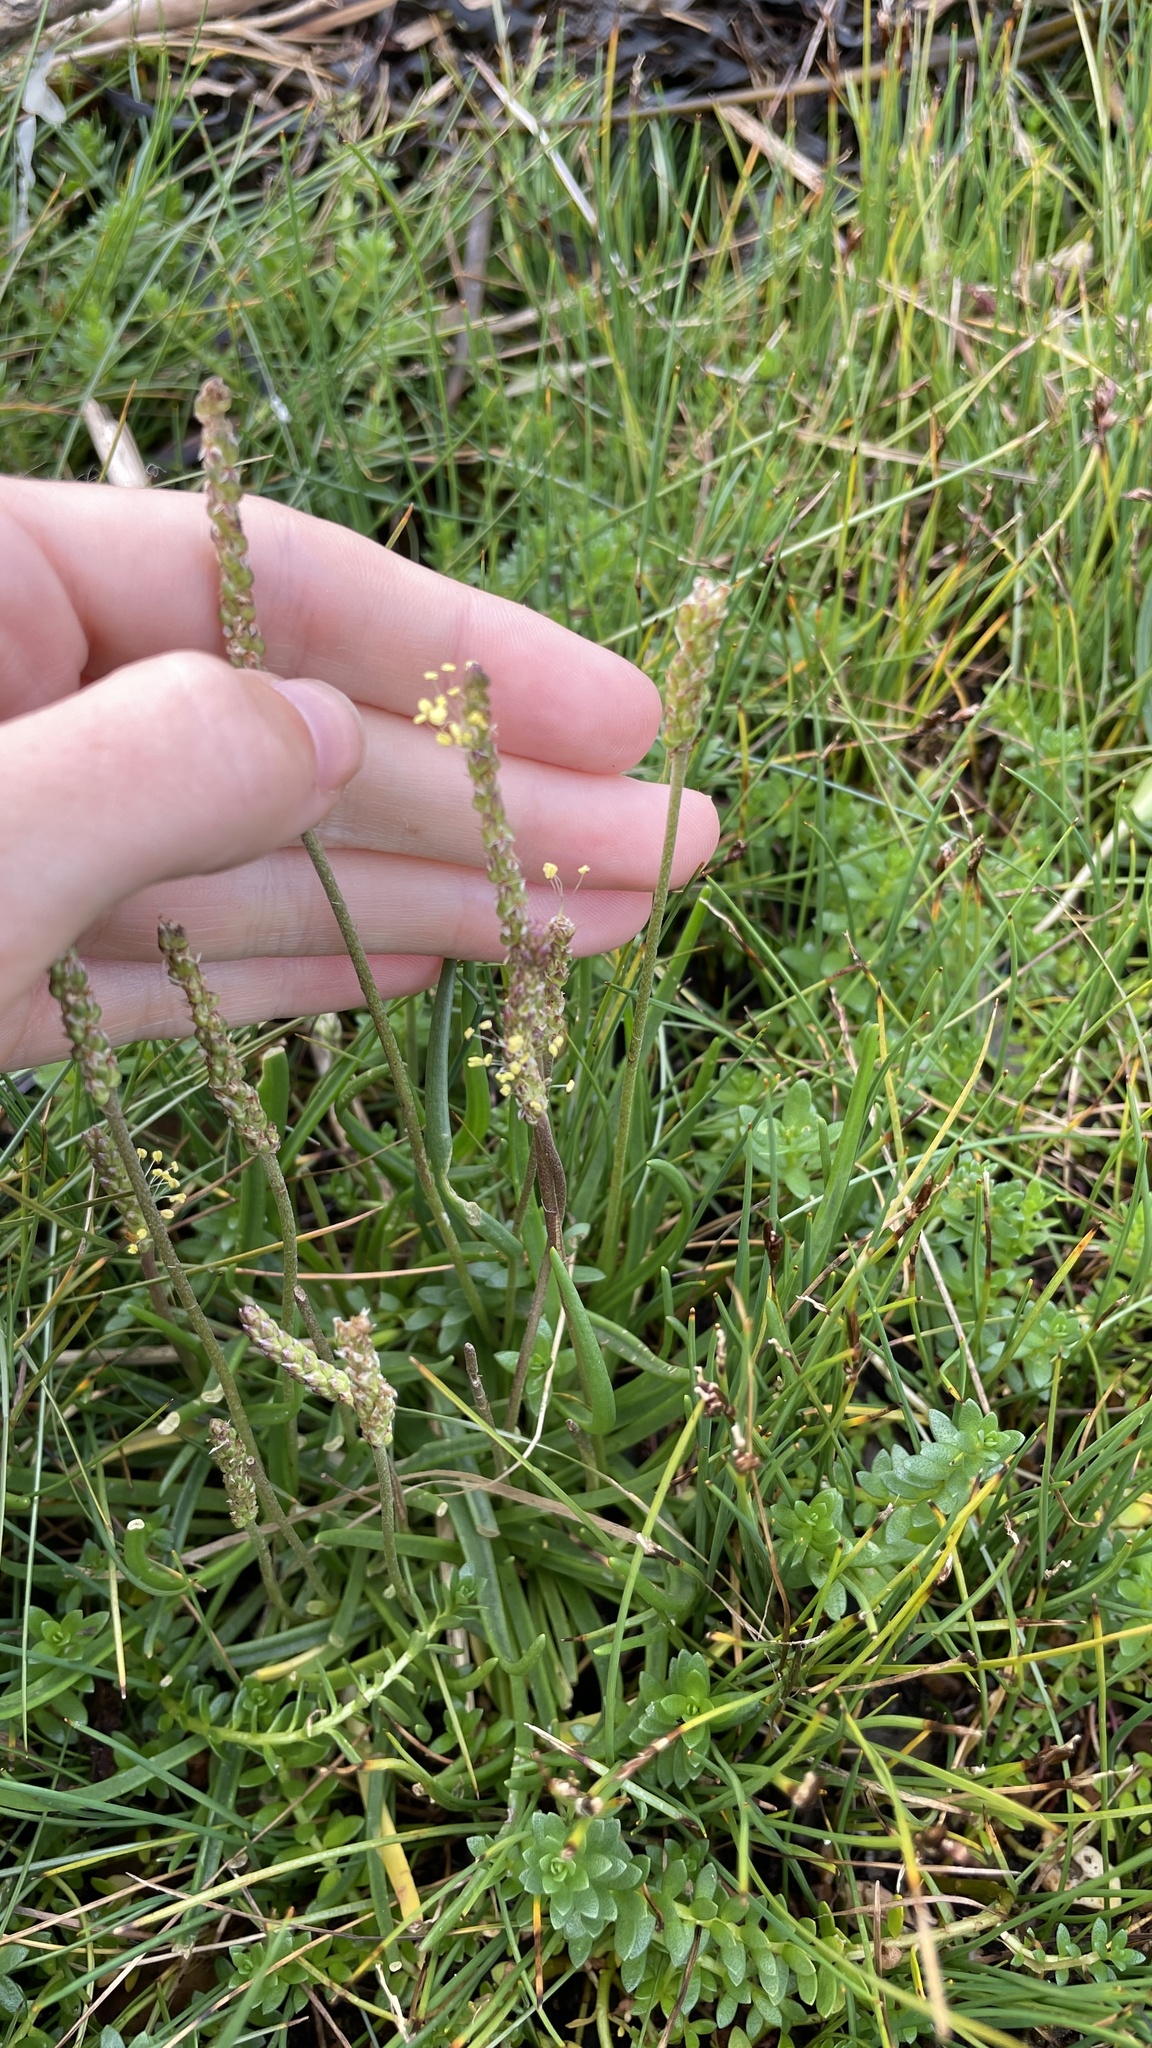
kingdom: Plantae
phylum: Tracheophyta
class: Magnoliopsida
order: Lamiales
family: Plantaginaceae
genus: Plantago
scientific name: Plantago maritima
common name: Sea plantain
